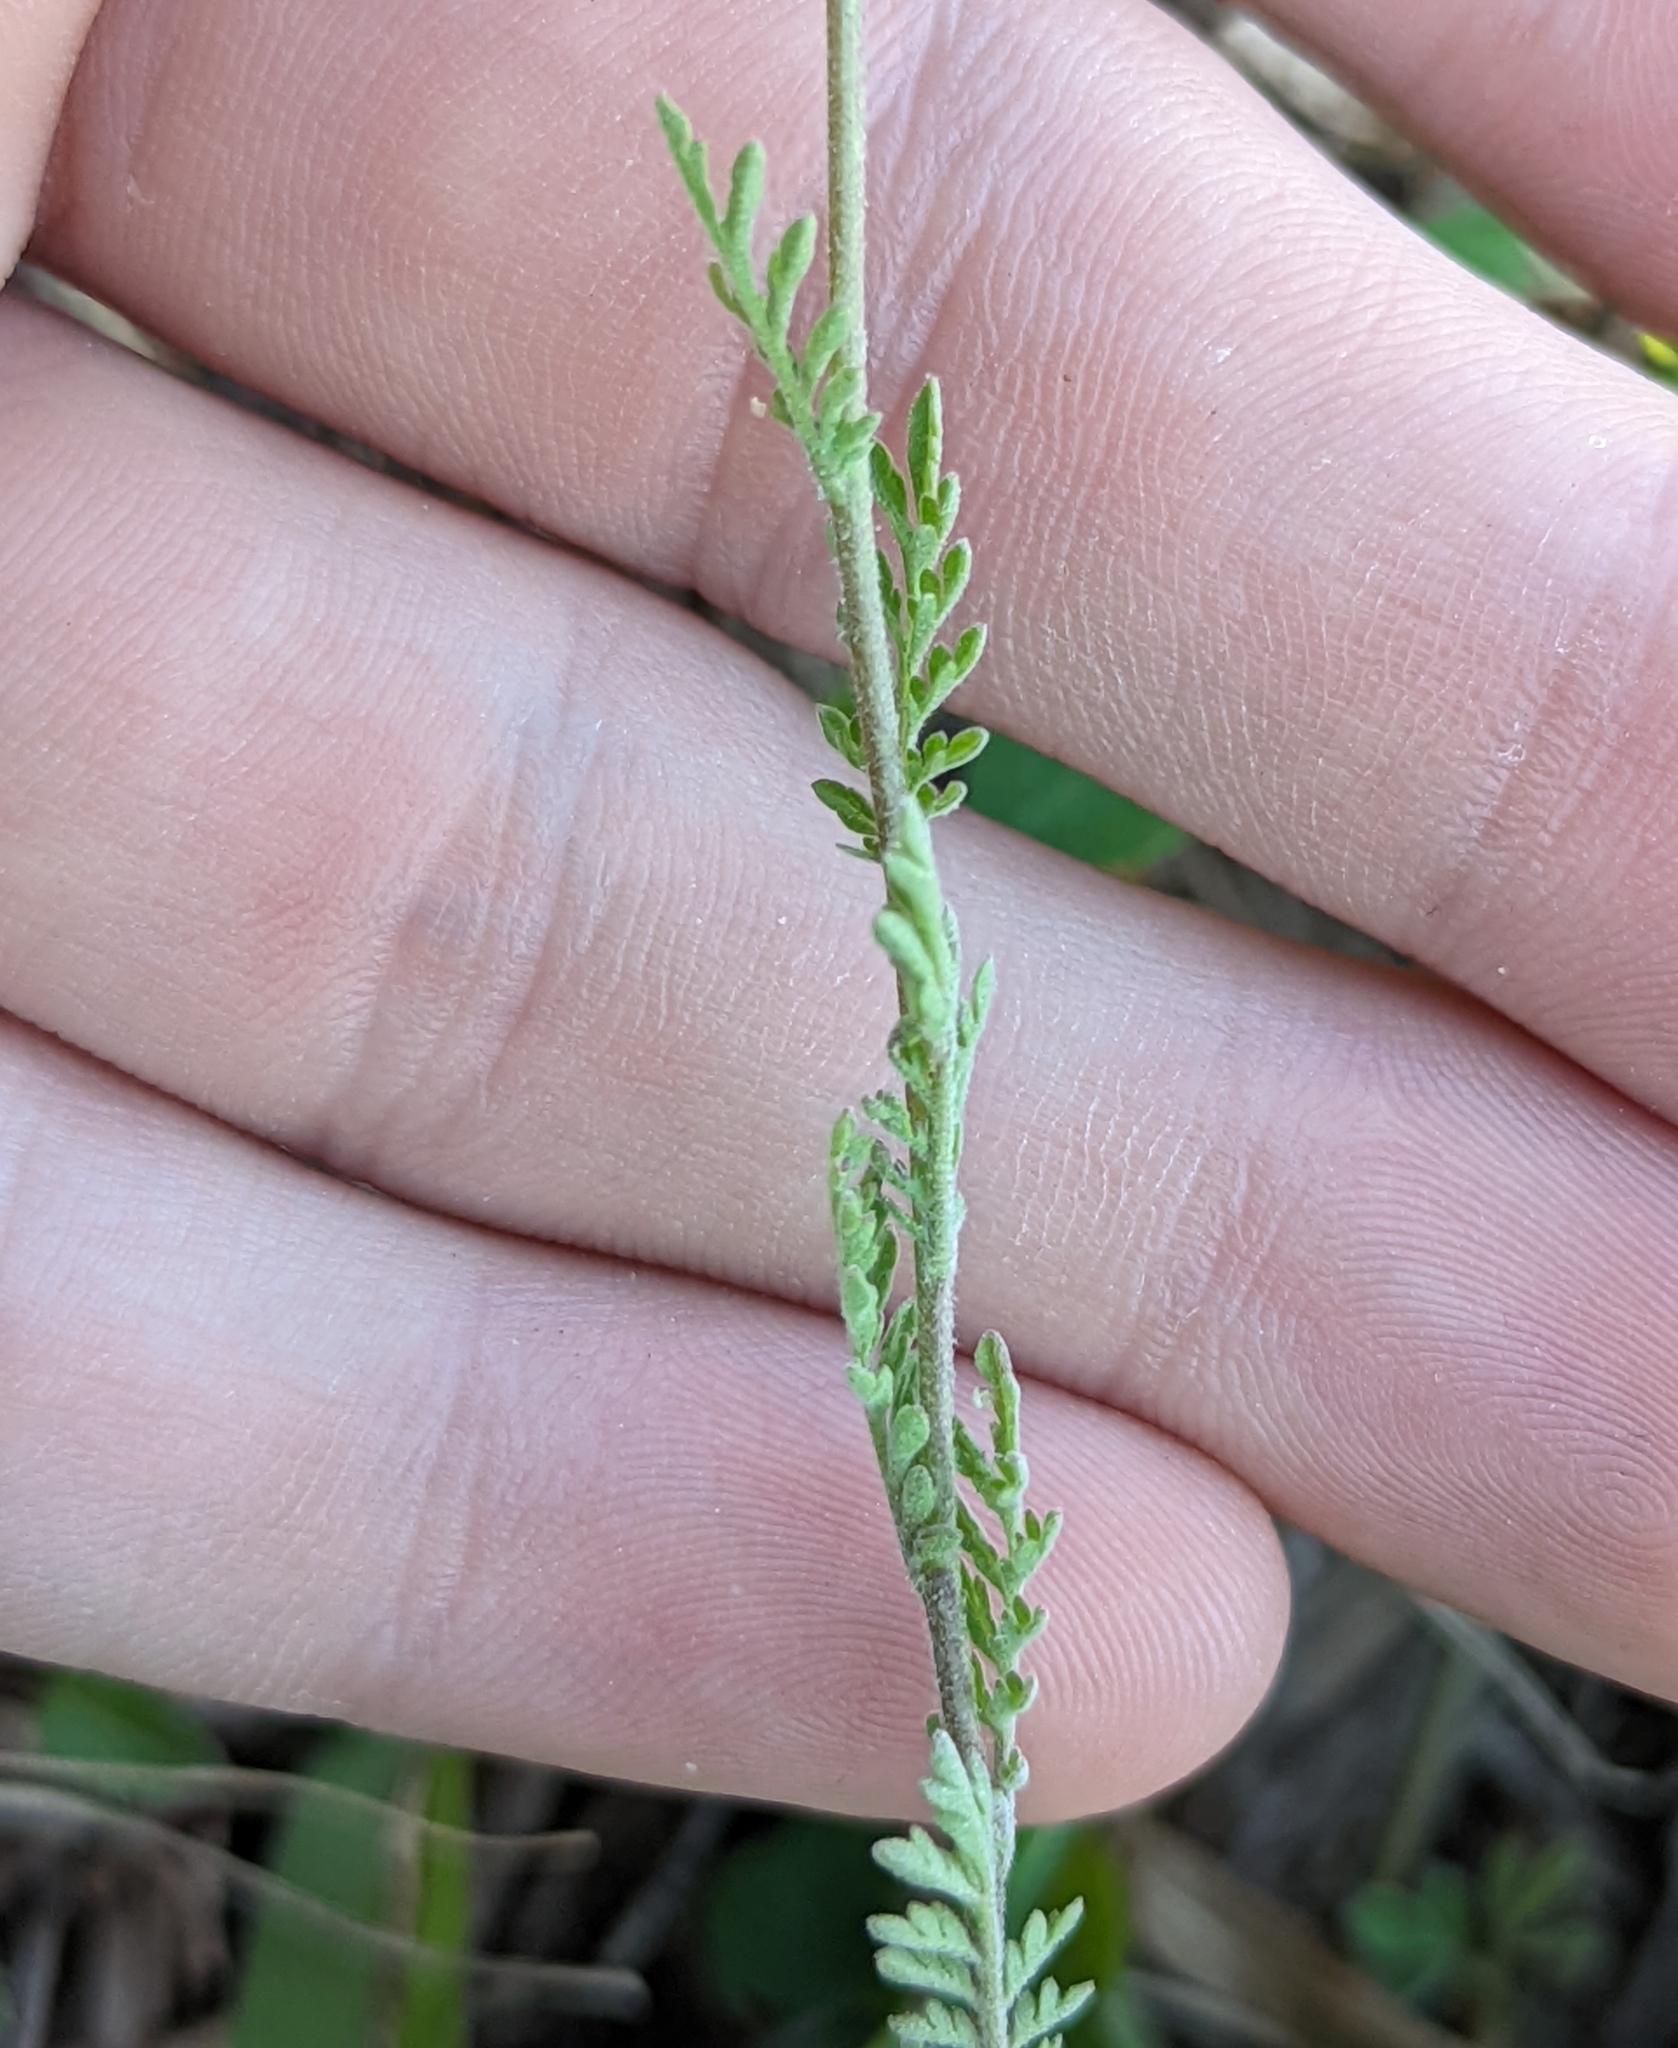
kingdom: Plantae
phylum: Tracheophyta
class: Magnoliopsida
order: Brassicales
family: Brassicaceae
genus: Descurainia
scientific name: Descurainia pinnata
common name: Western tansy mustard
